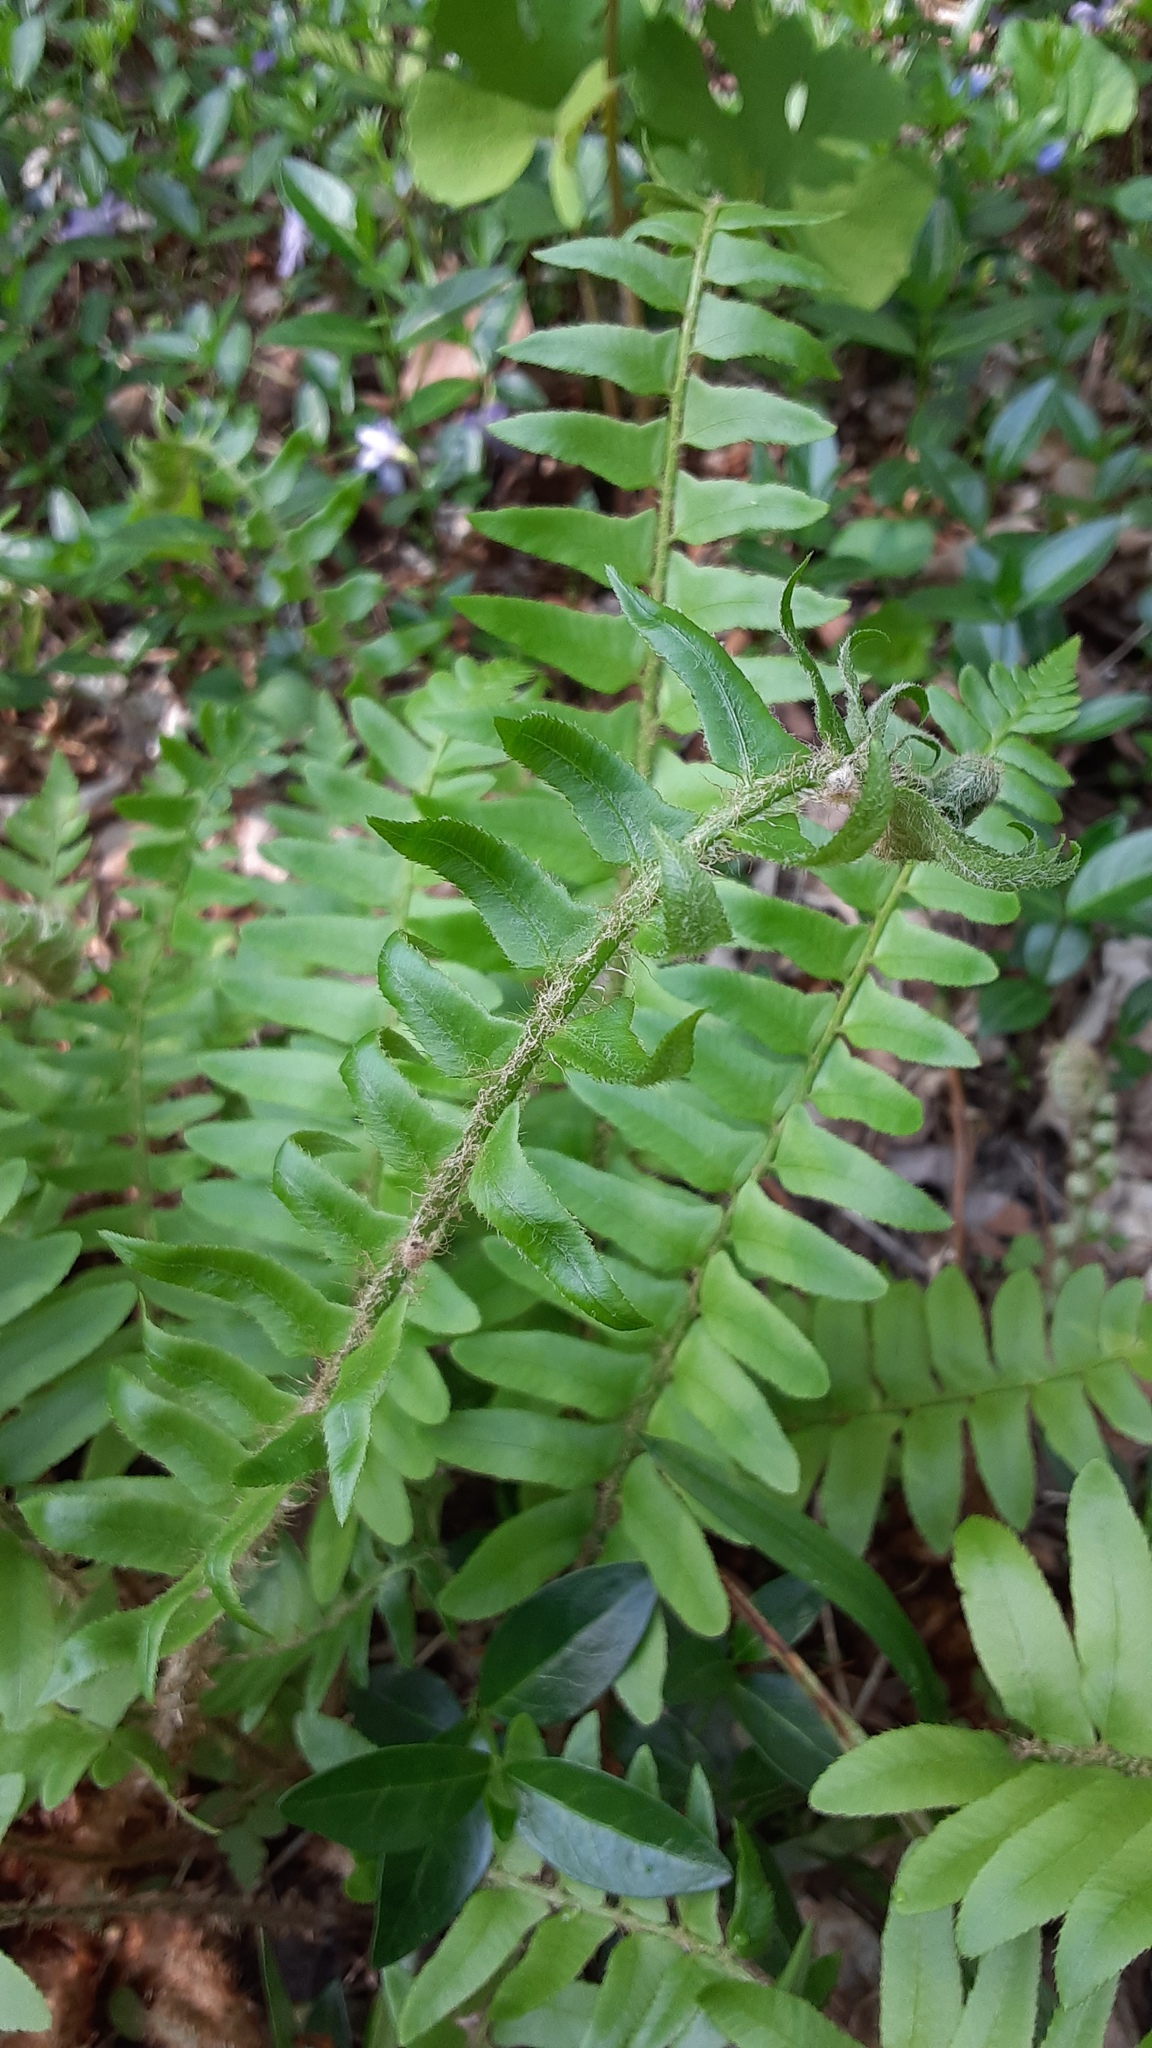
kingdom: Plantae
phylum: Tracheophyta
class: Polypodiopsida
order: Polypodiales
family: Dryopteridaceae
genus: Polystichum
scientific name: Polystichum acrostichoides
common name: Christmas fern
